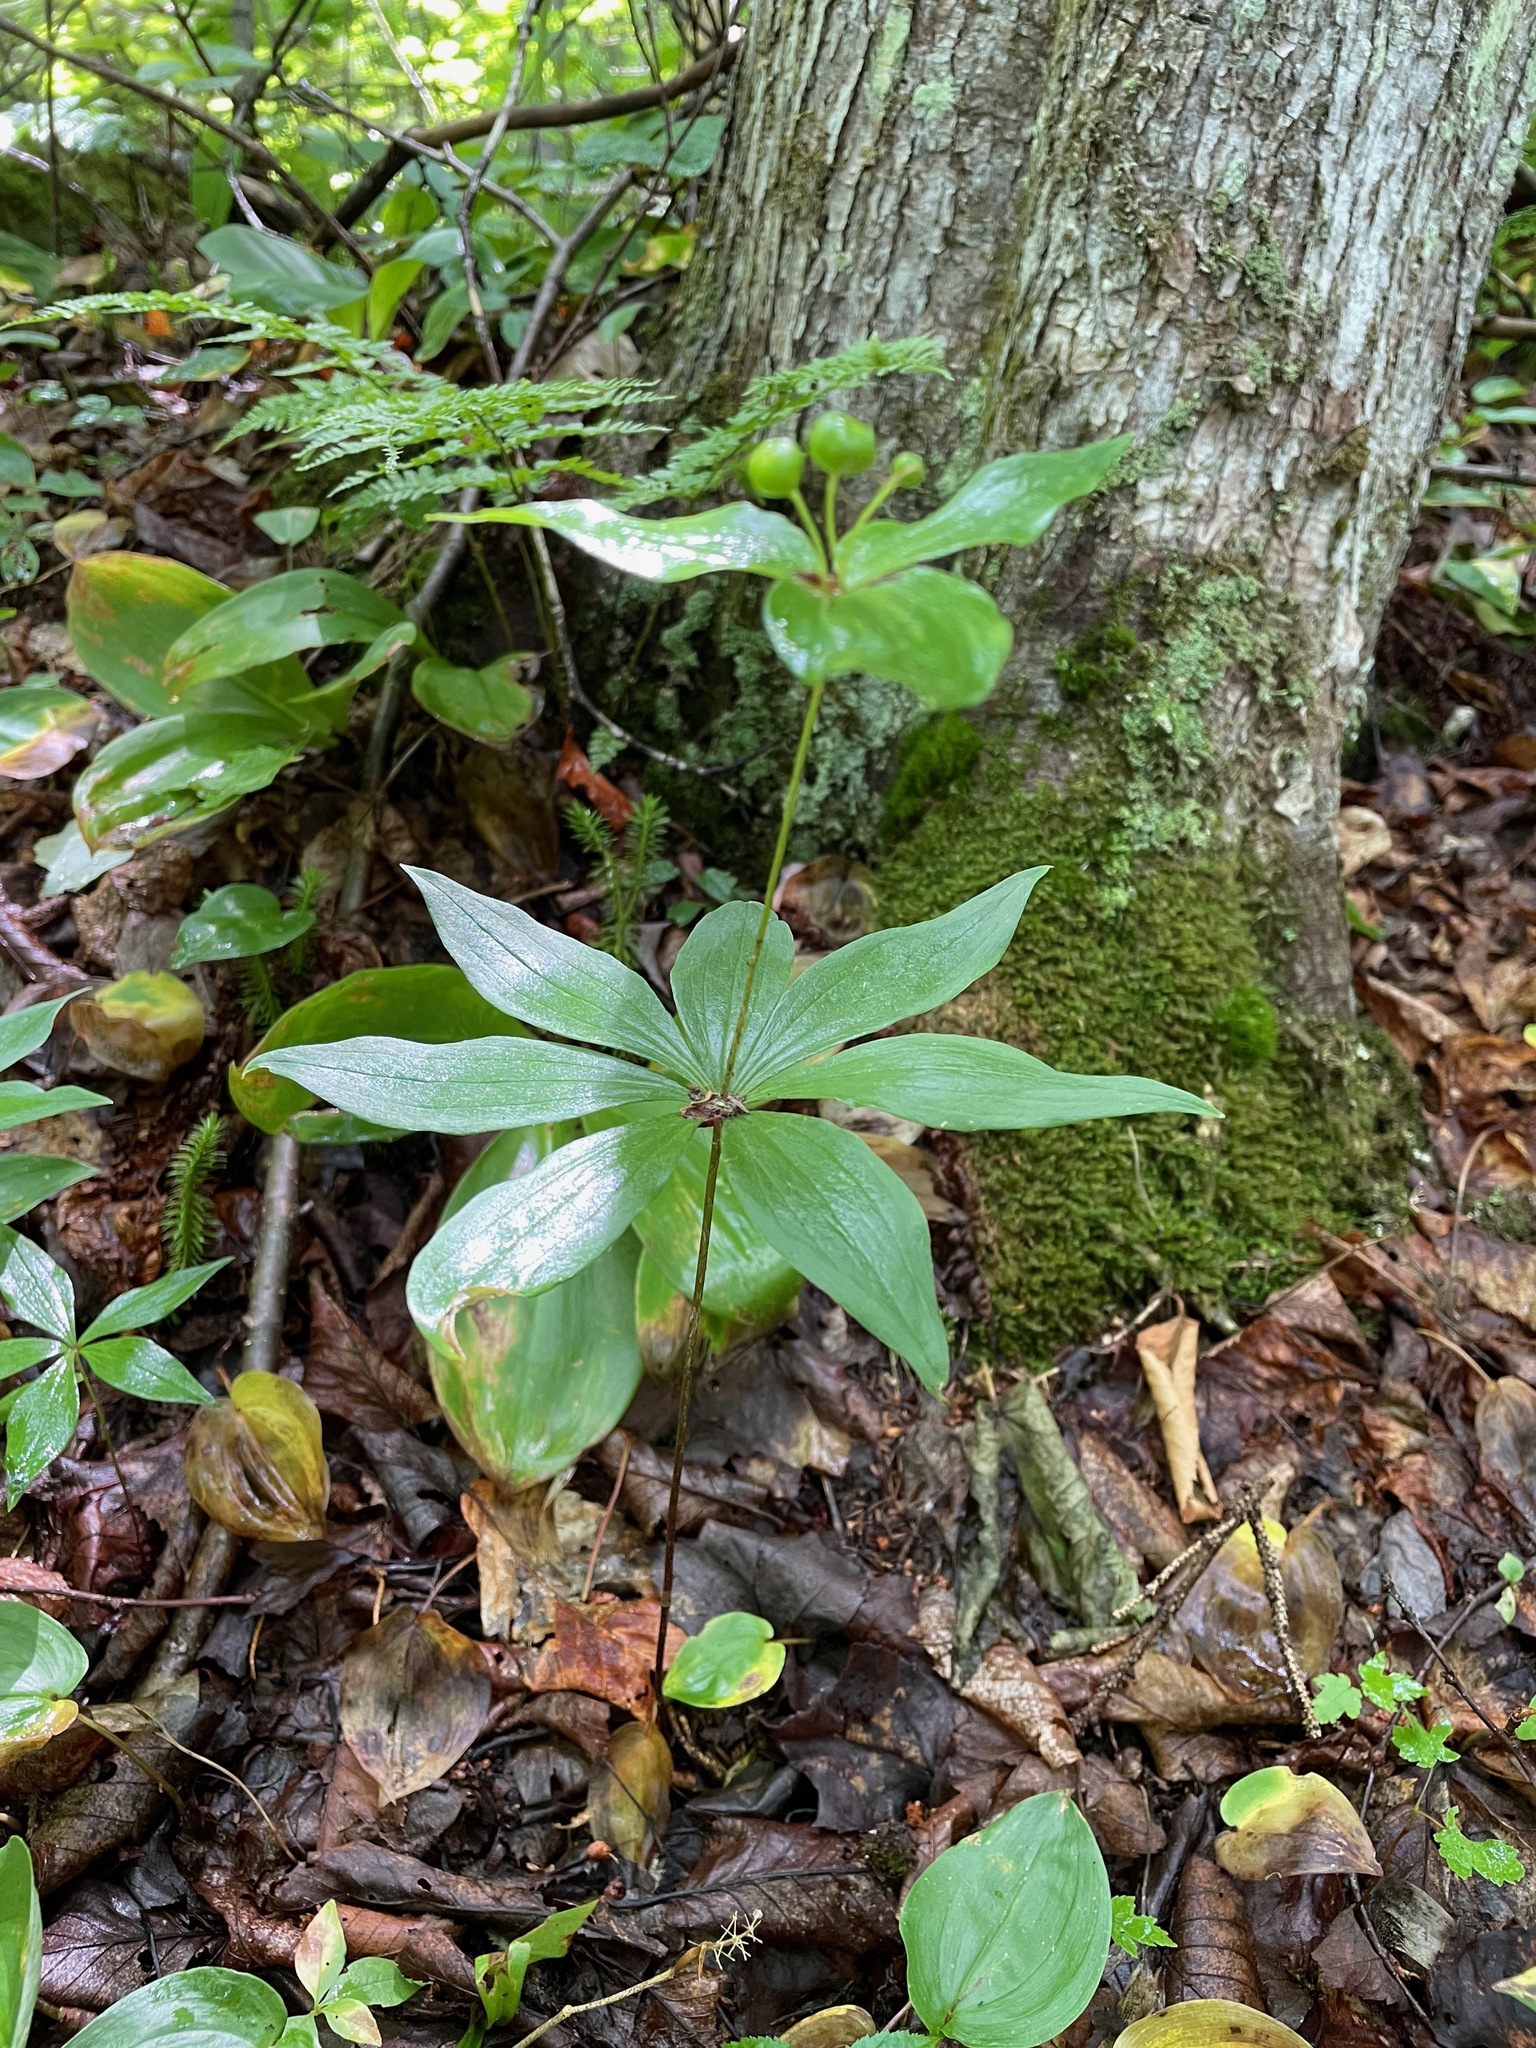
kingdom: Plantae
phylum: Tracheophyta
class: Liliopsida
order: Liliales
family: Liliaceae
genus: Medeola
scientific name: Medeola virginiana
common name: Indian cucumber-root
